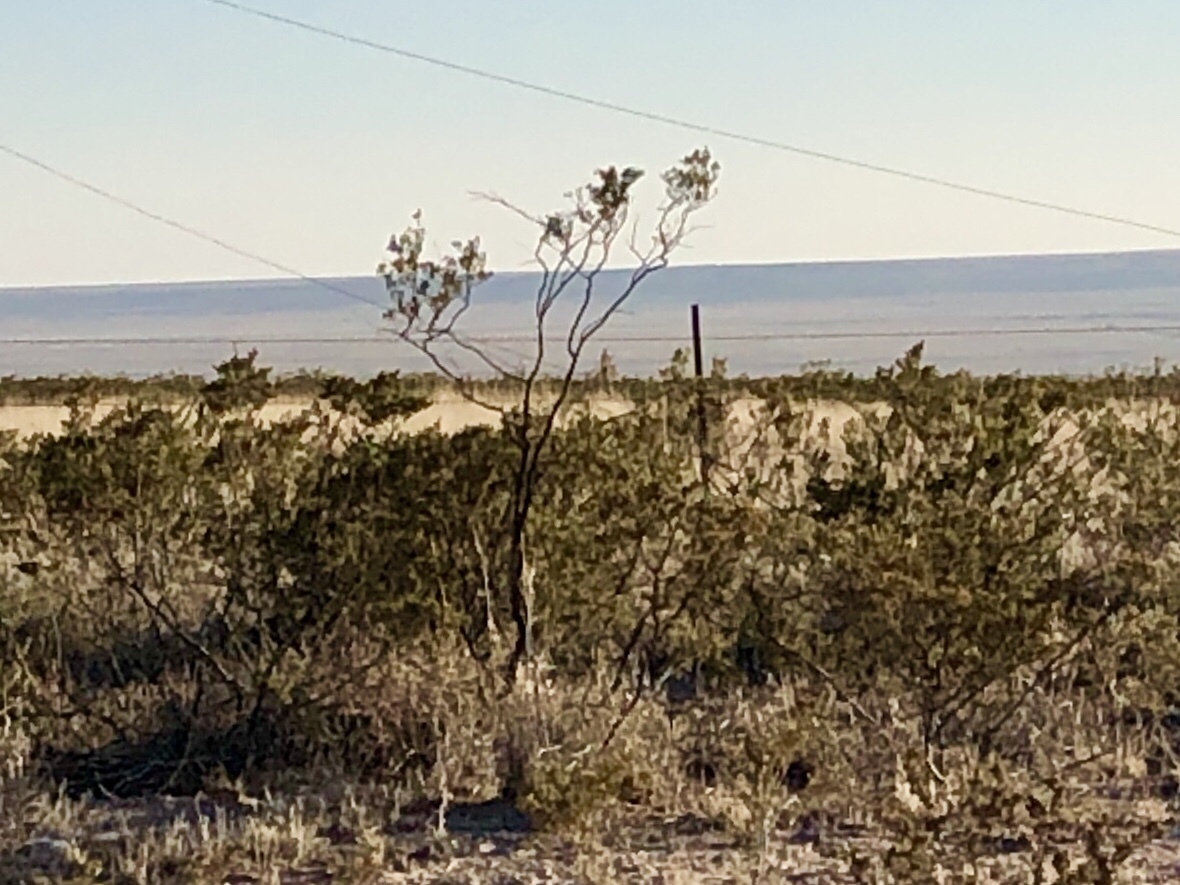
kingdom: Plantae
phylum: Tracheophyta
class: Magnoliopsida
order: Zygophyllales
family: Zygophyllaceae
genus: Larrea
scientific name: Larrea tridentata
